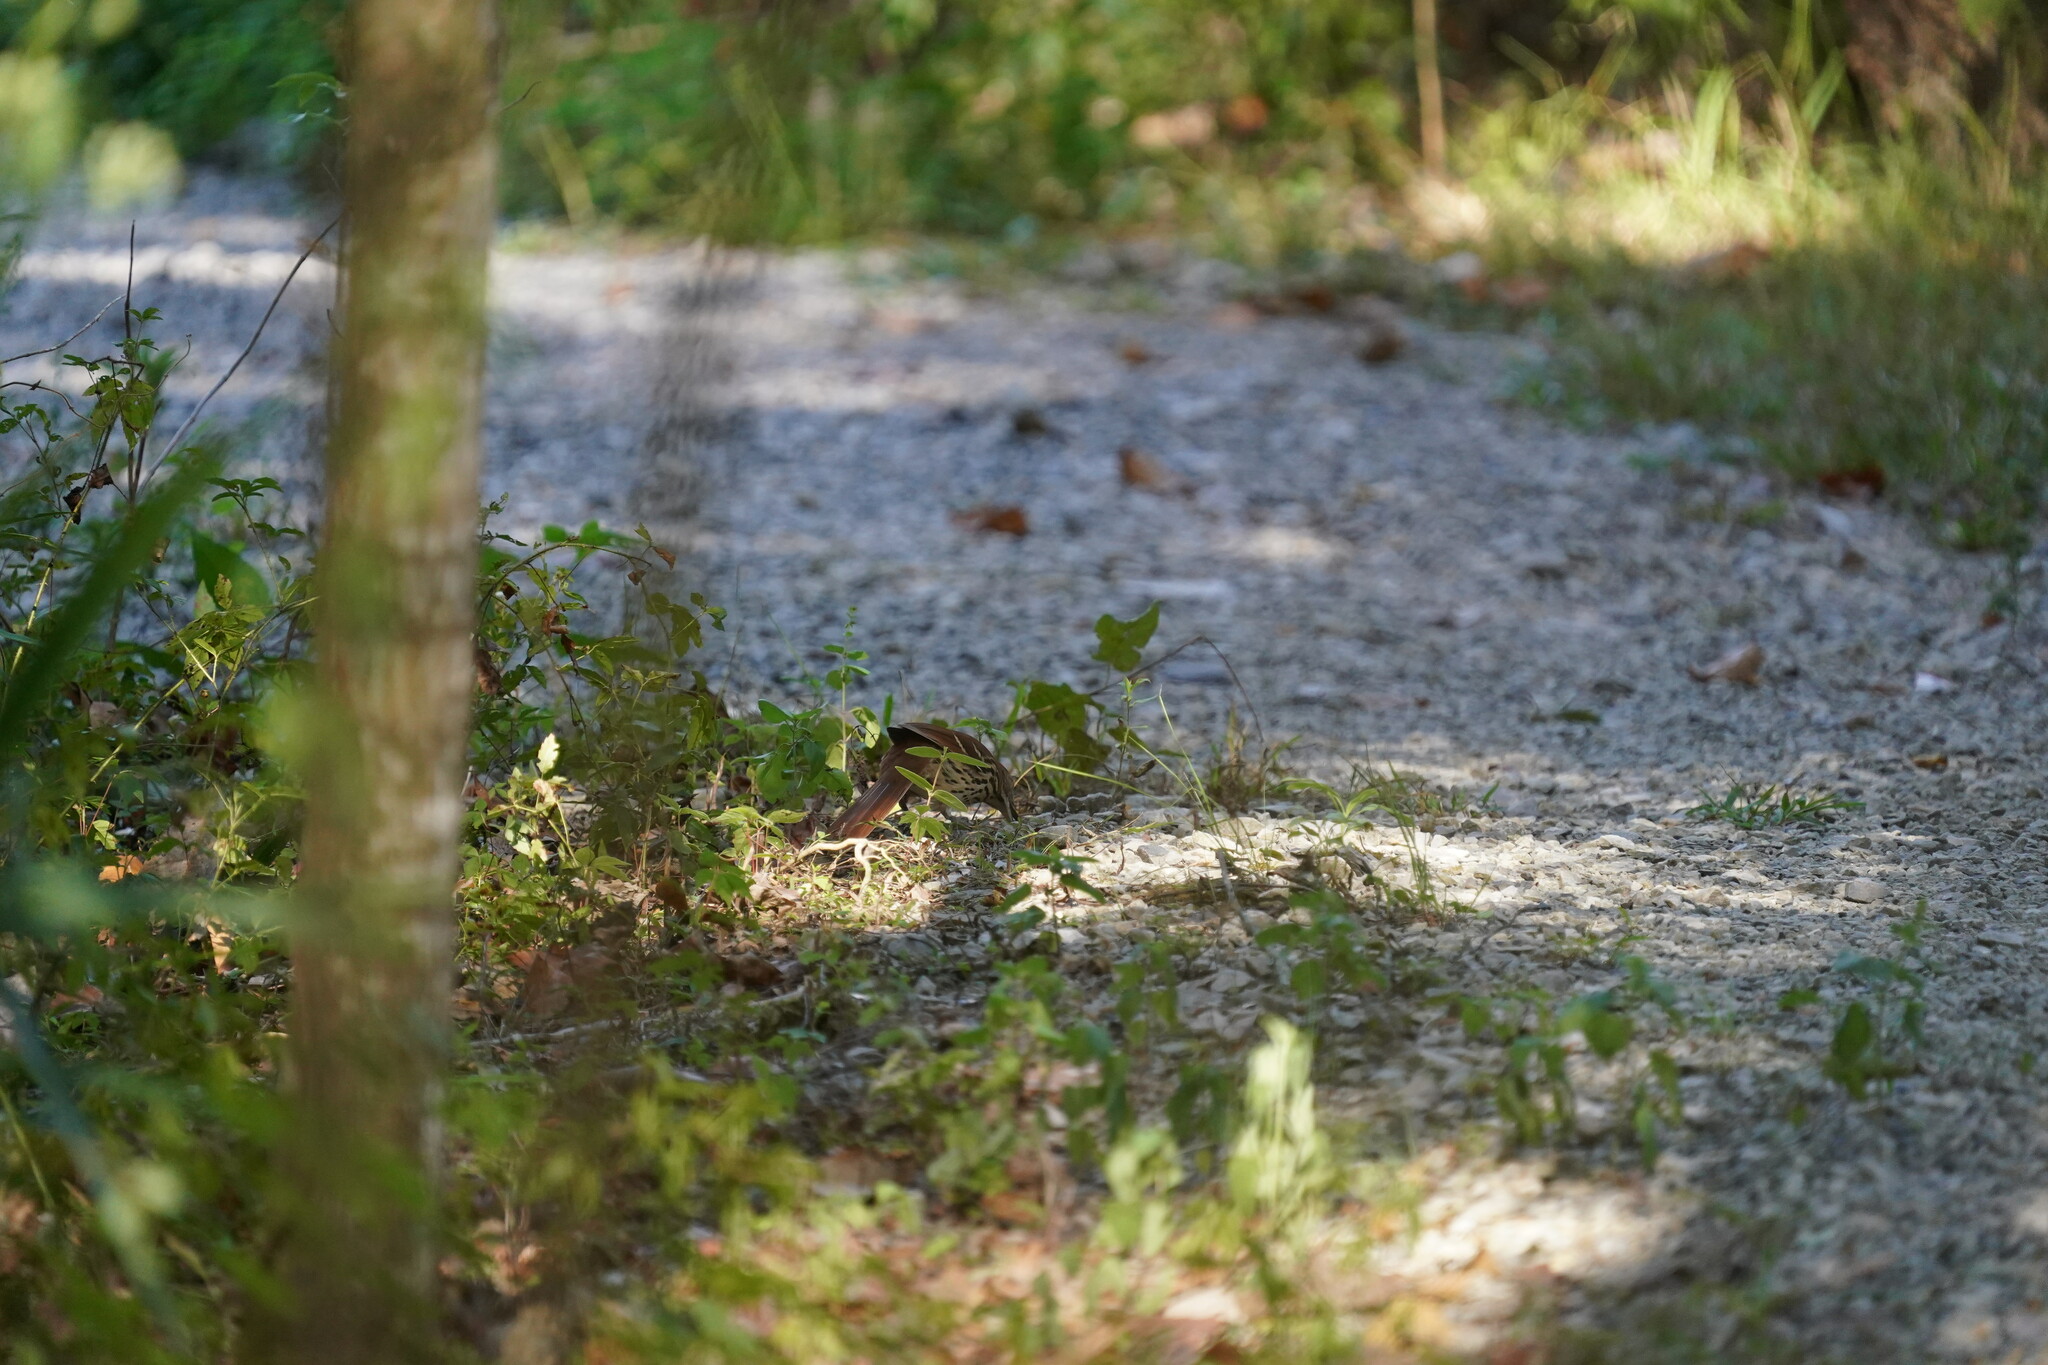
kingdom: Animalia
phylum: Chordata
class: Aves
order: Passeriformes
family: Mimidae
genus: Toxostoma
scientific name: Toxostoma rufum
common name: Brown thrasher
